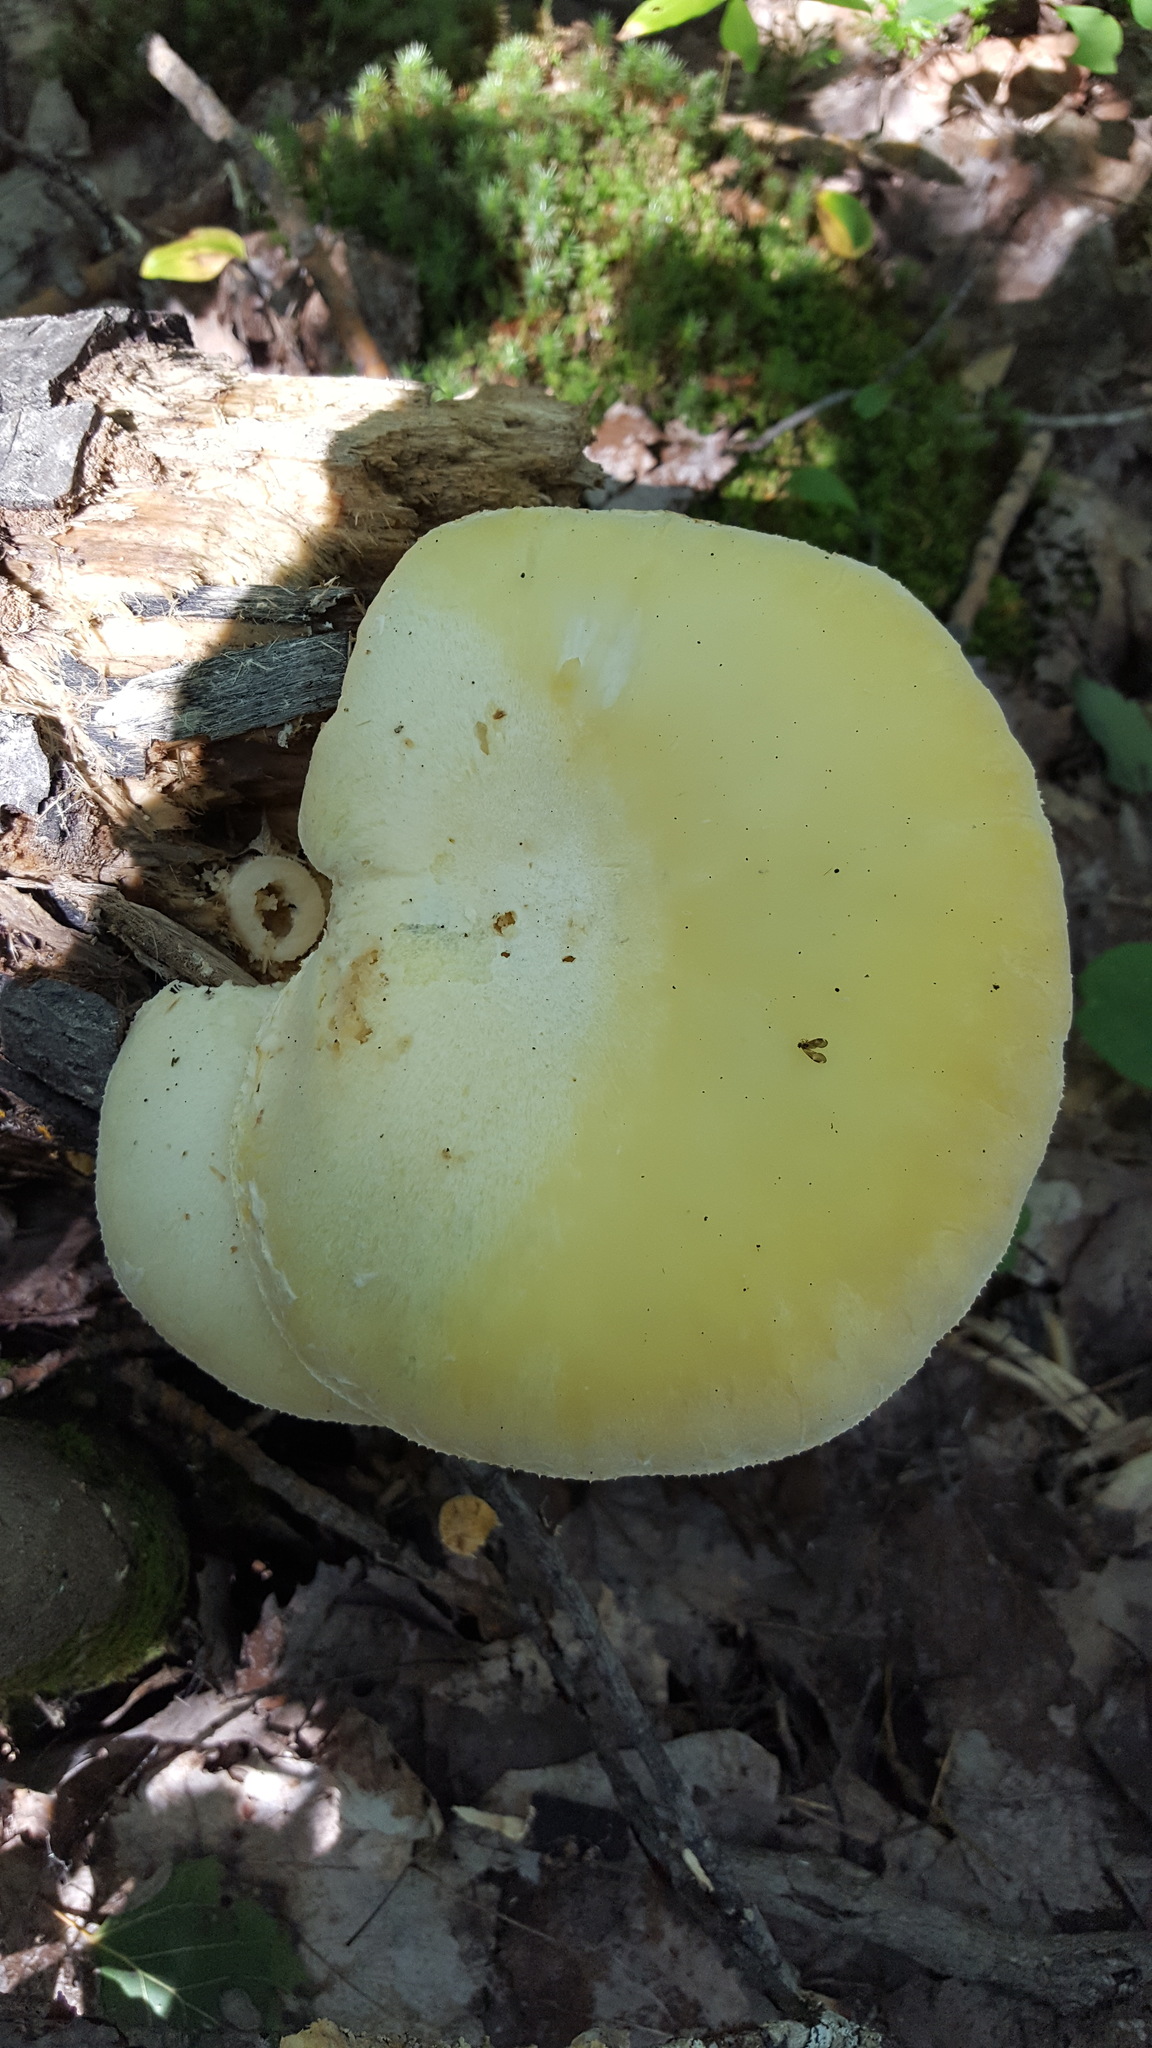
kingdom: Fungi
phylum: Basidiomycota
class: Agaricomycetes
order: Polyporales
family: Polyporaceae
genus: Lentinus
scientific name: Lentinus levis
